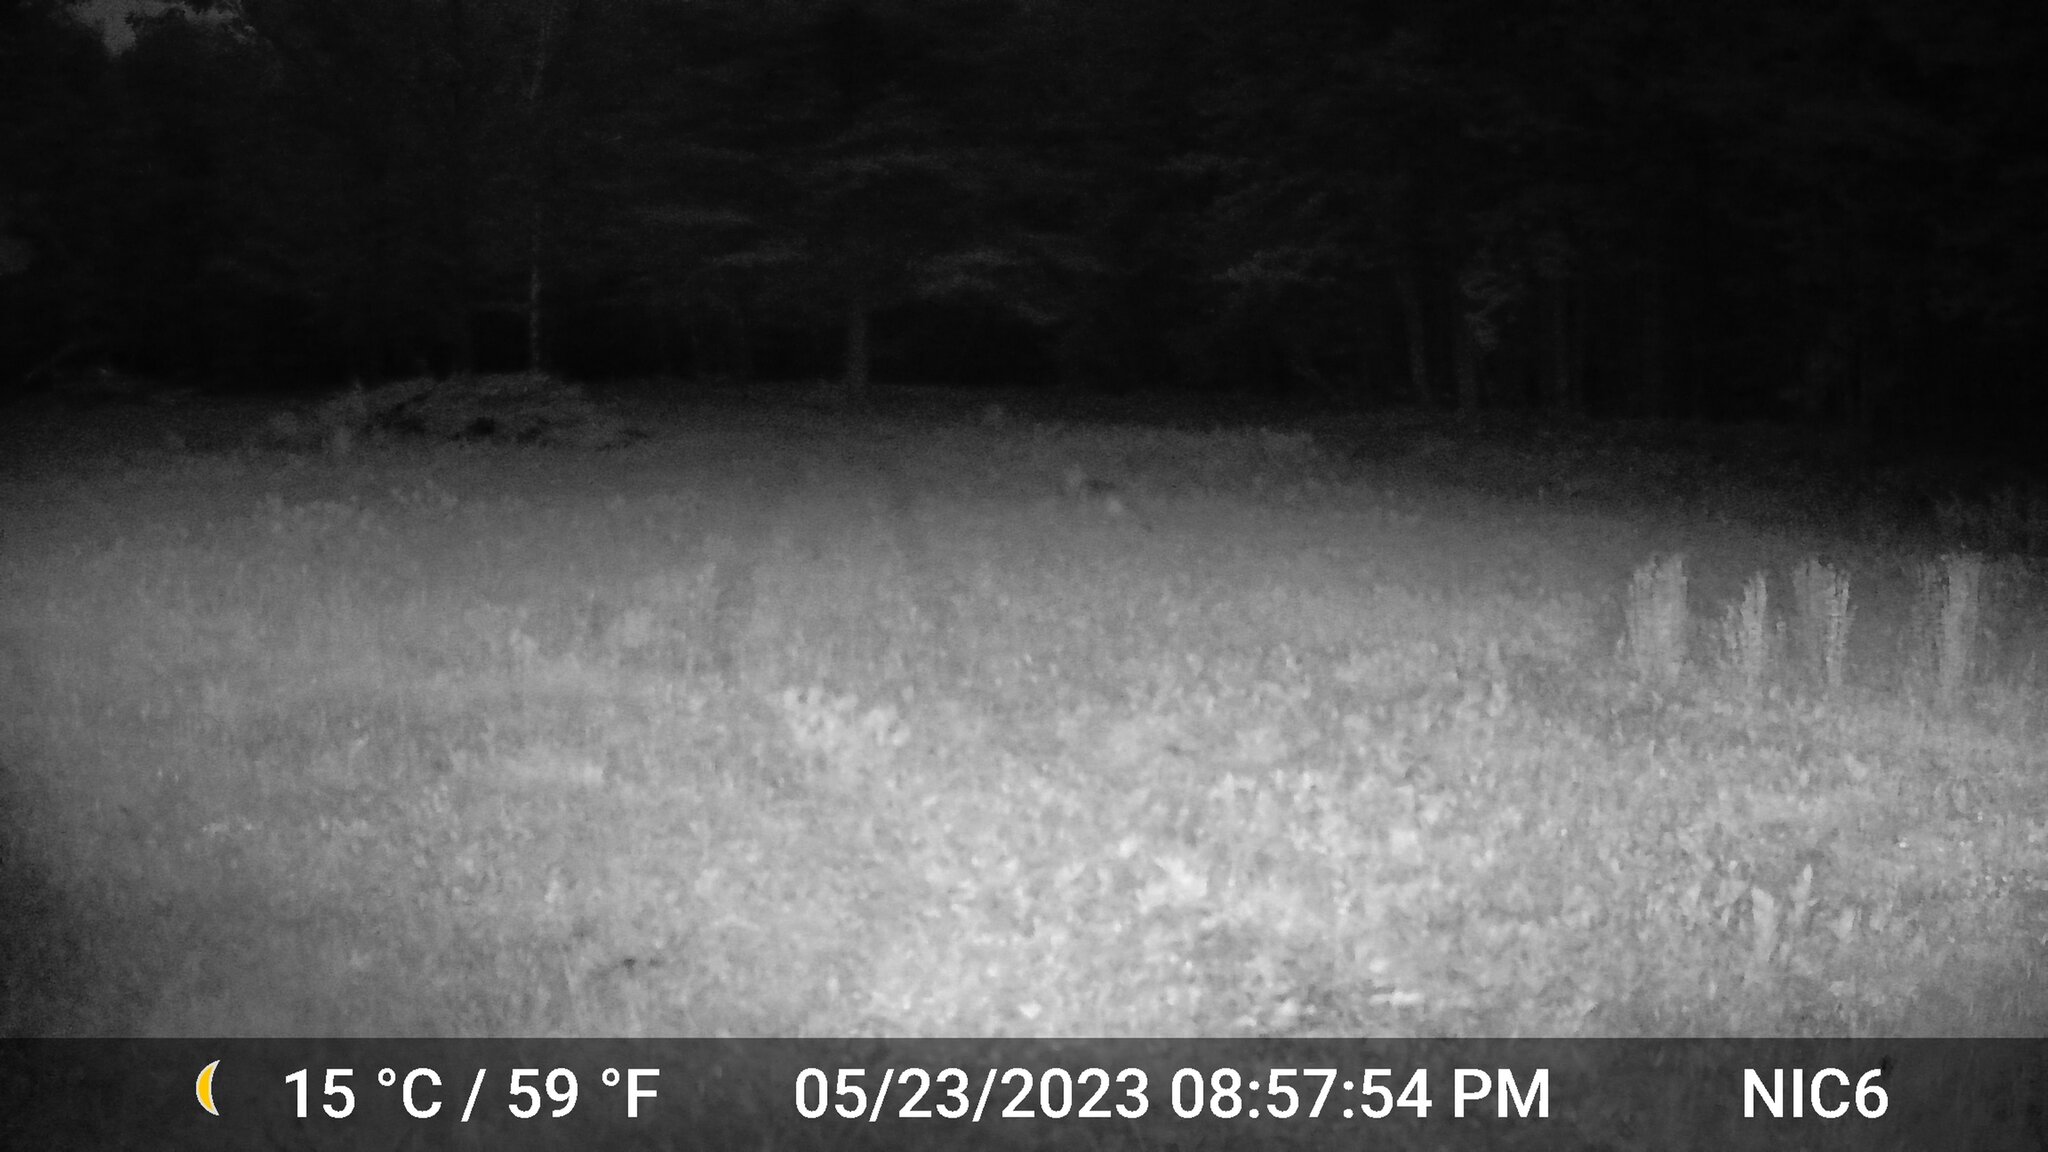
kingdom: Animalia
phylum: Chordata
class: Mammalia
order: Carnivora
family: Canidae
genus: Canis
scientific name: Canis latrans
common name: Coyote
